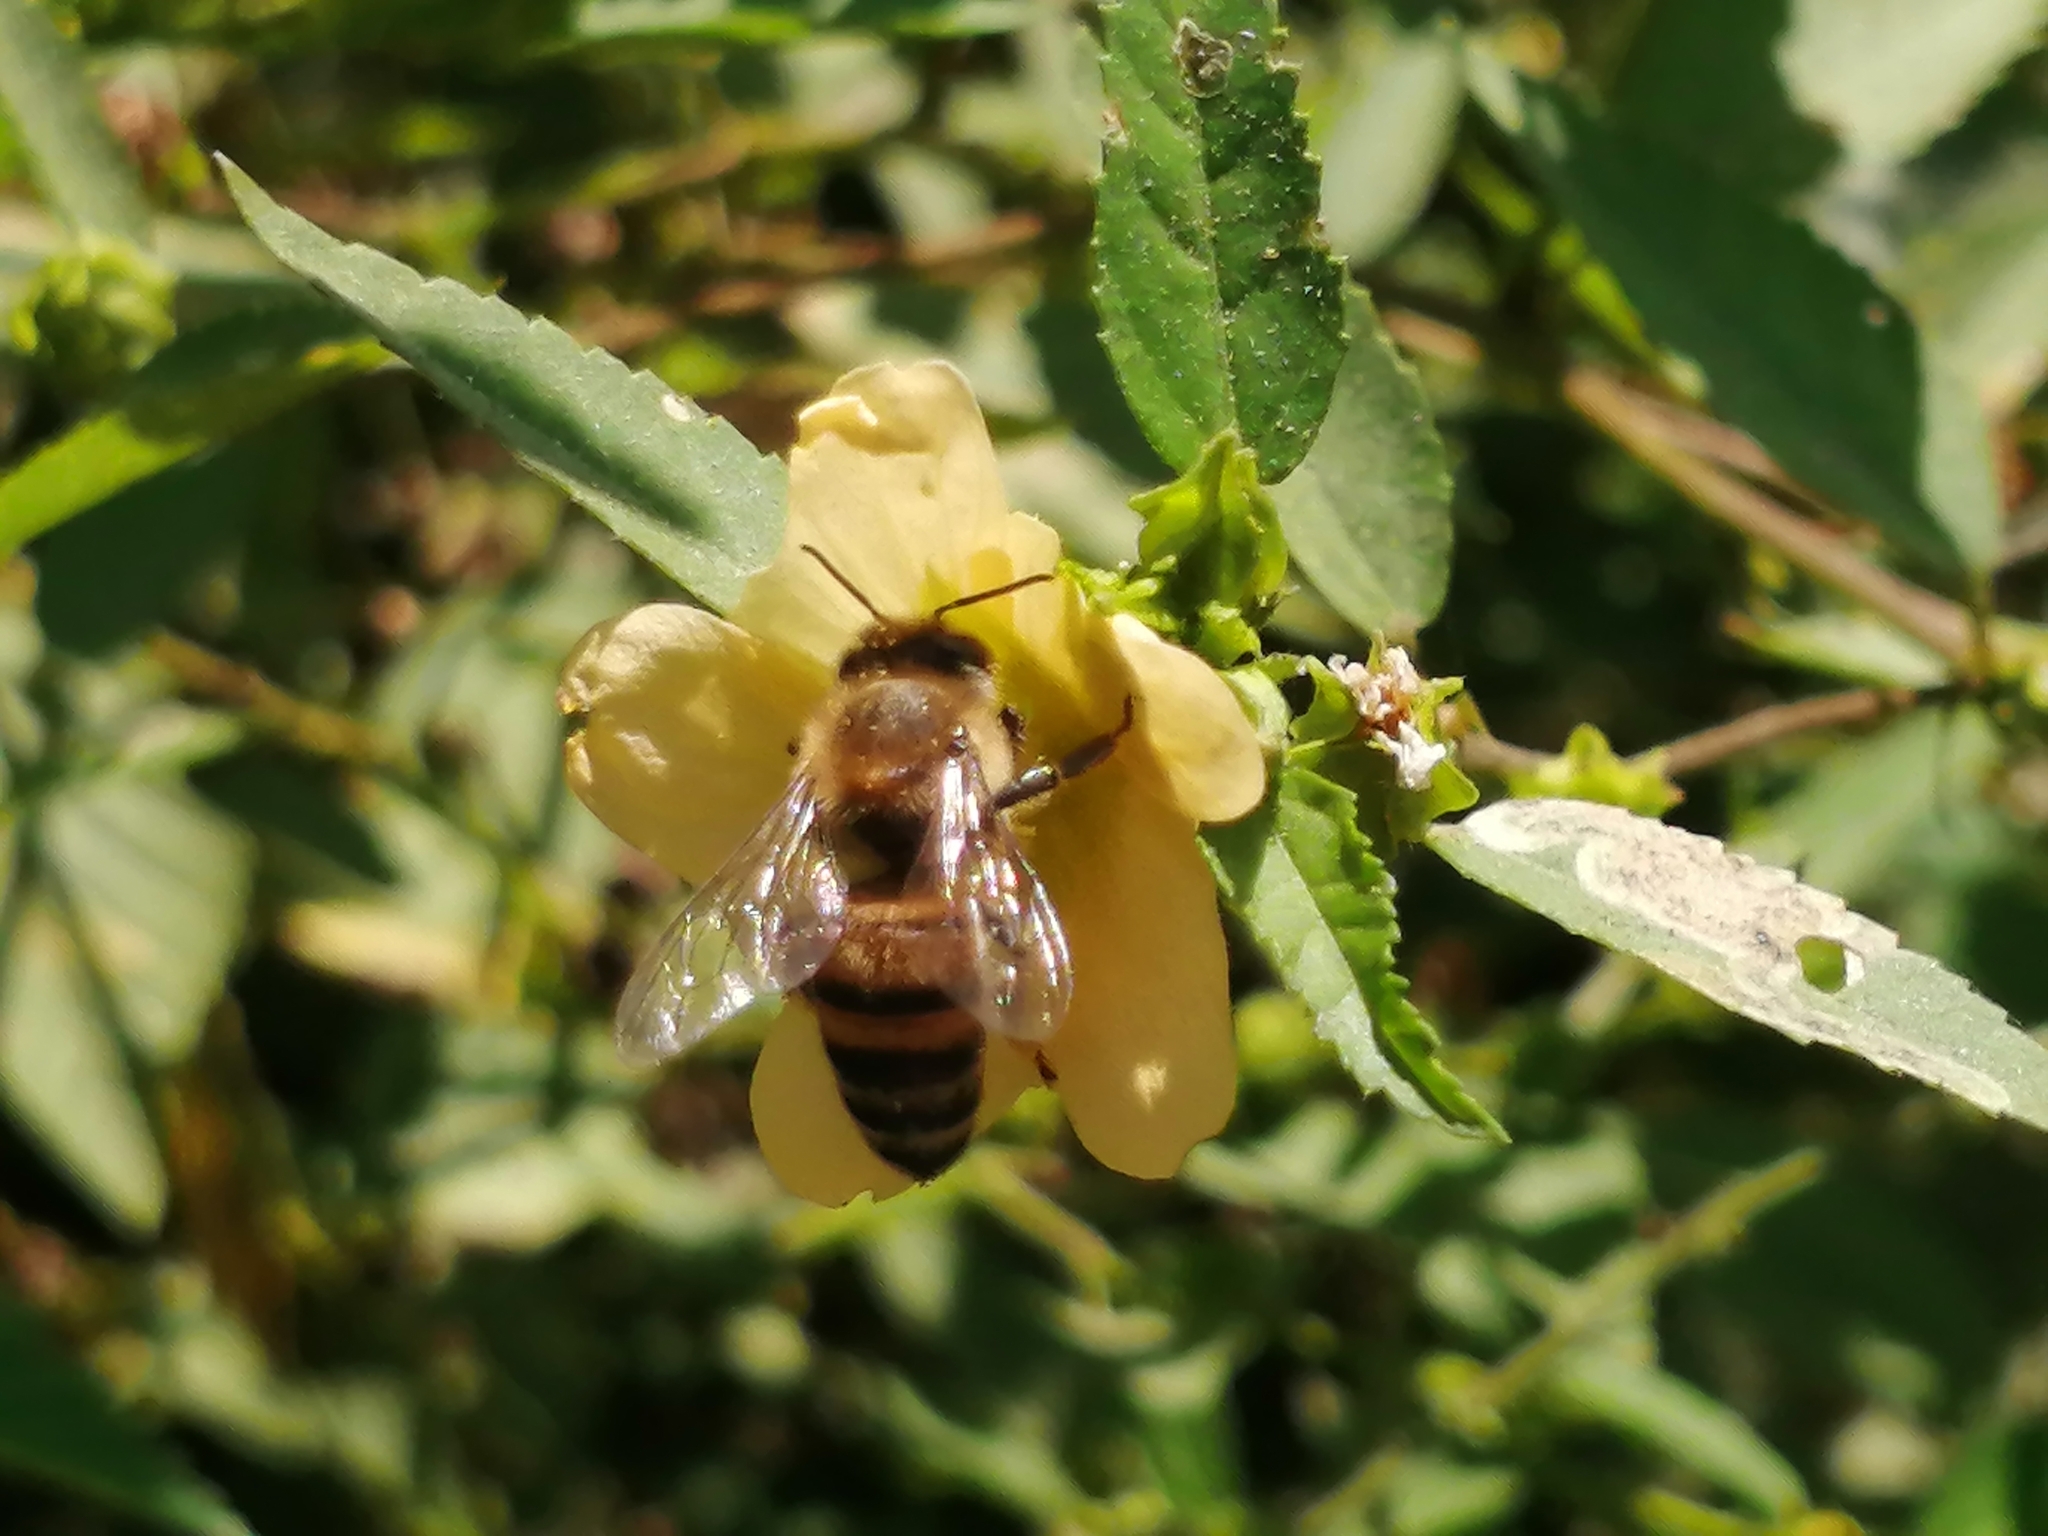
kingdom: Animalia
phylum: Arthropoda
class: Insecta
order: Hymenoptera
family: Apidae
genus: Apis
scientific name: Apis mellifera
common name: Honey bee
